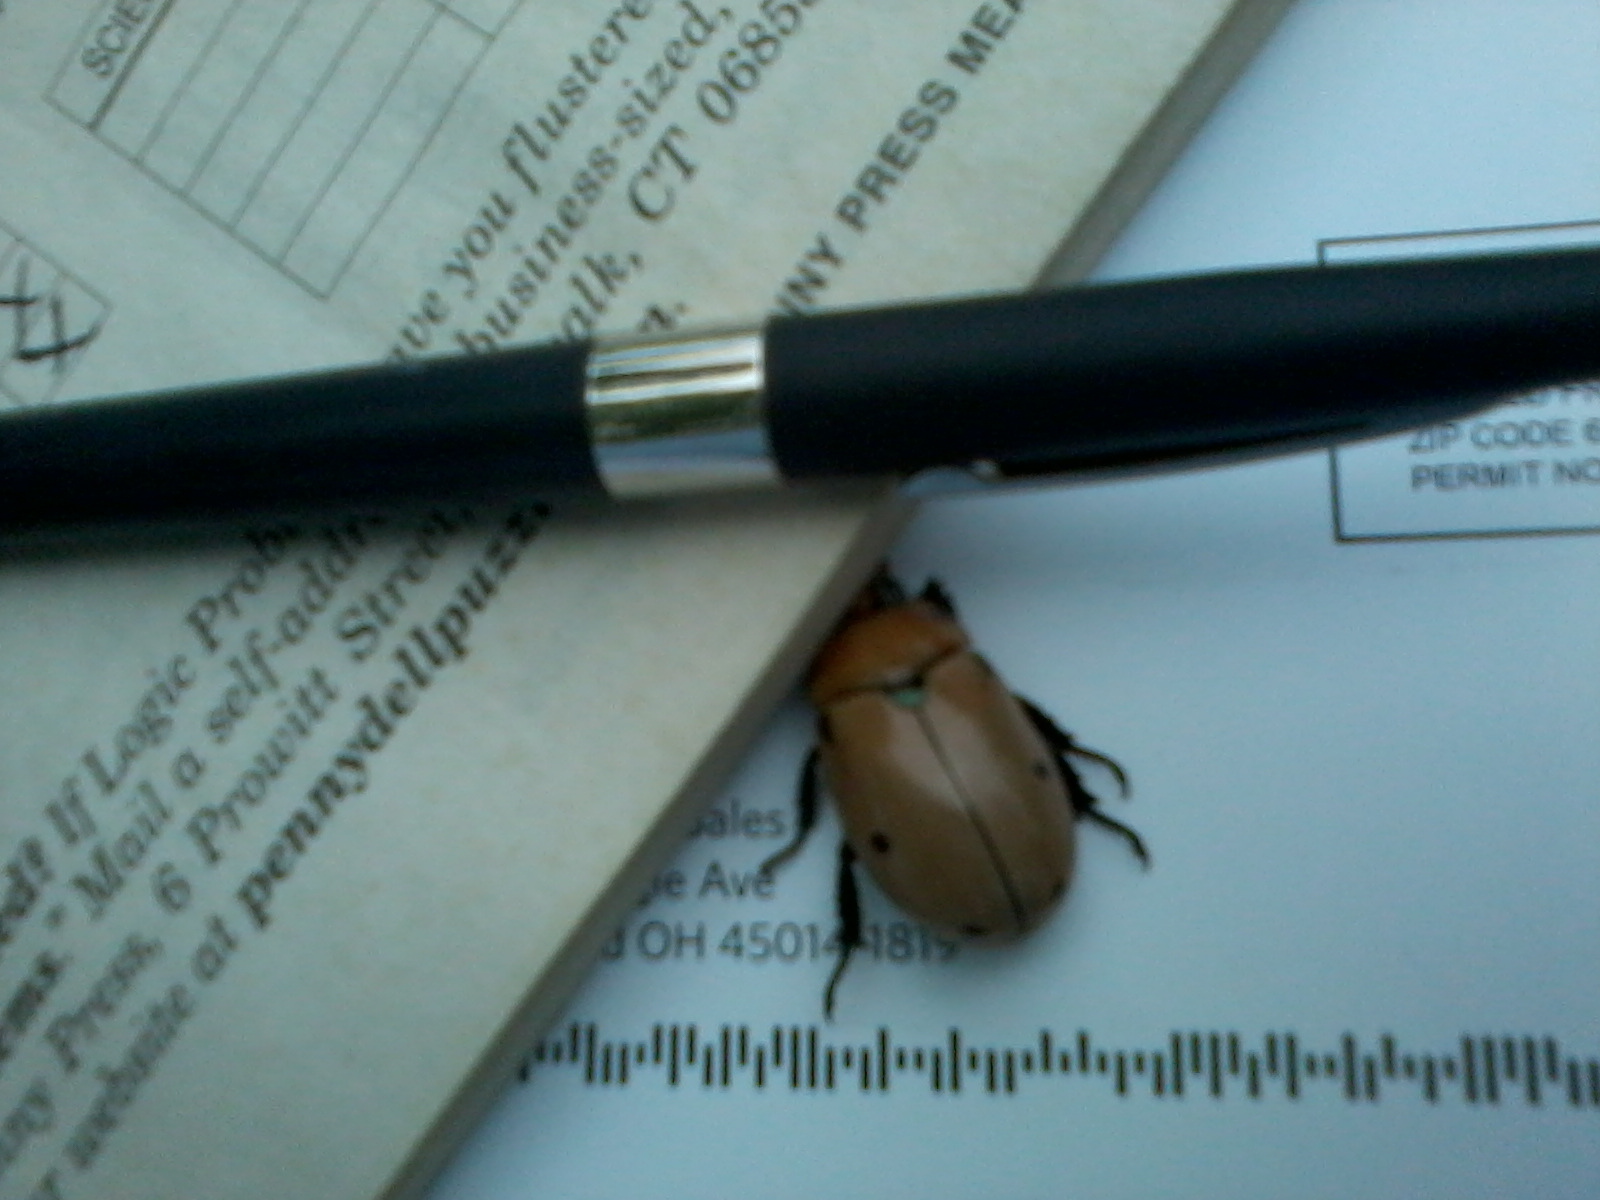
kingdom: Animalia
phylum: Arthropoda
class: Insecta
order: Coleoptera
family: Scarabaeidae
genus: Pelidnota
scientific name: Pelidnota punctata
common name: Grapevine beetle
